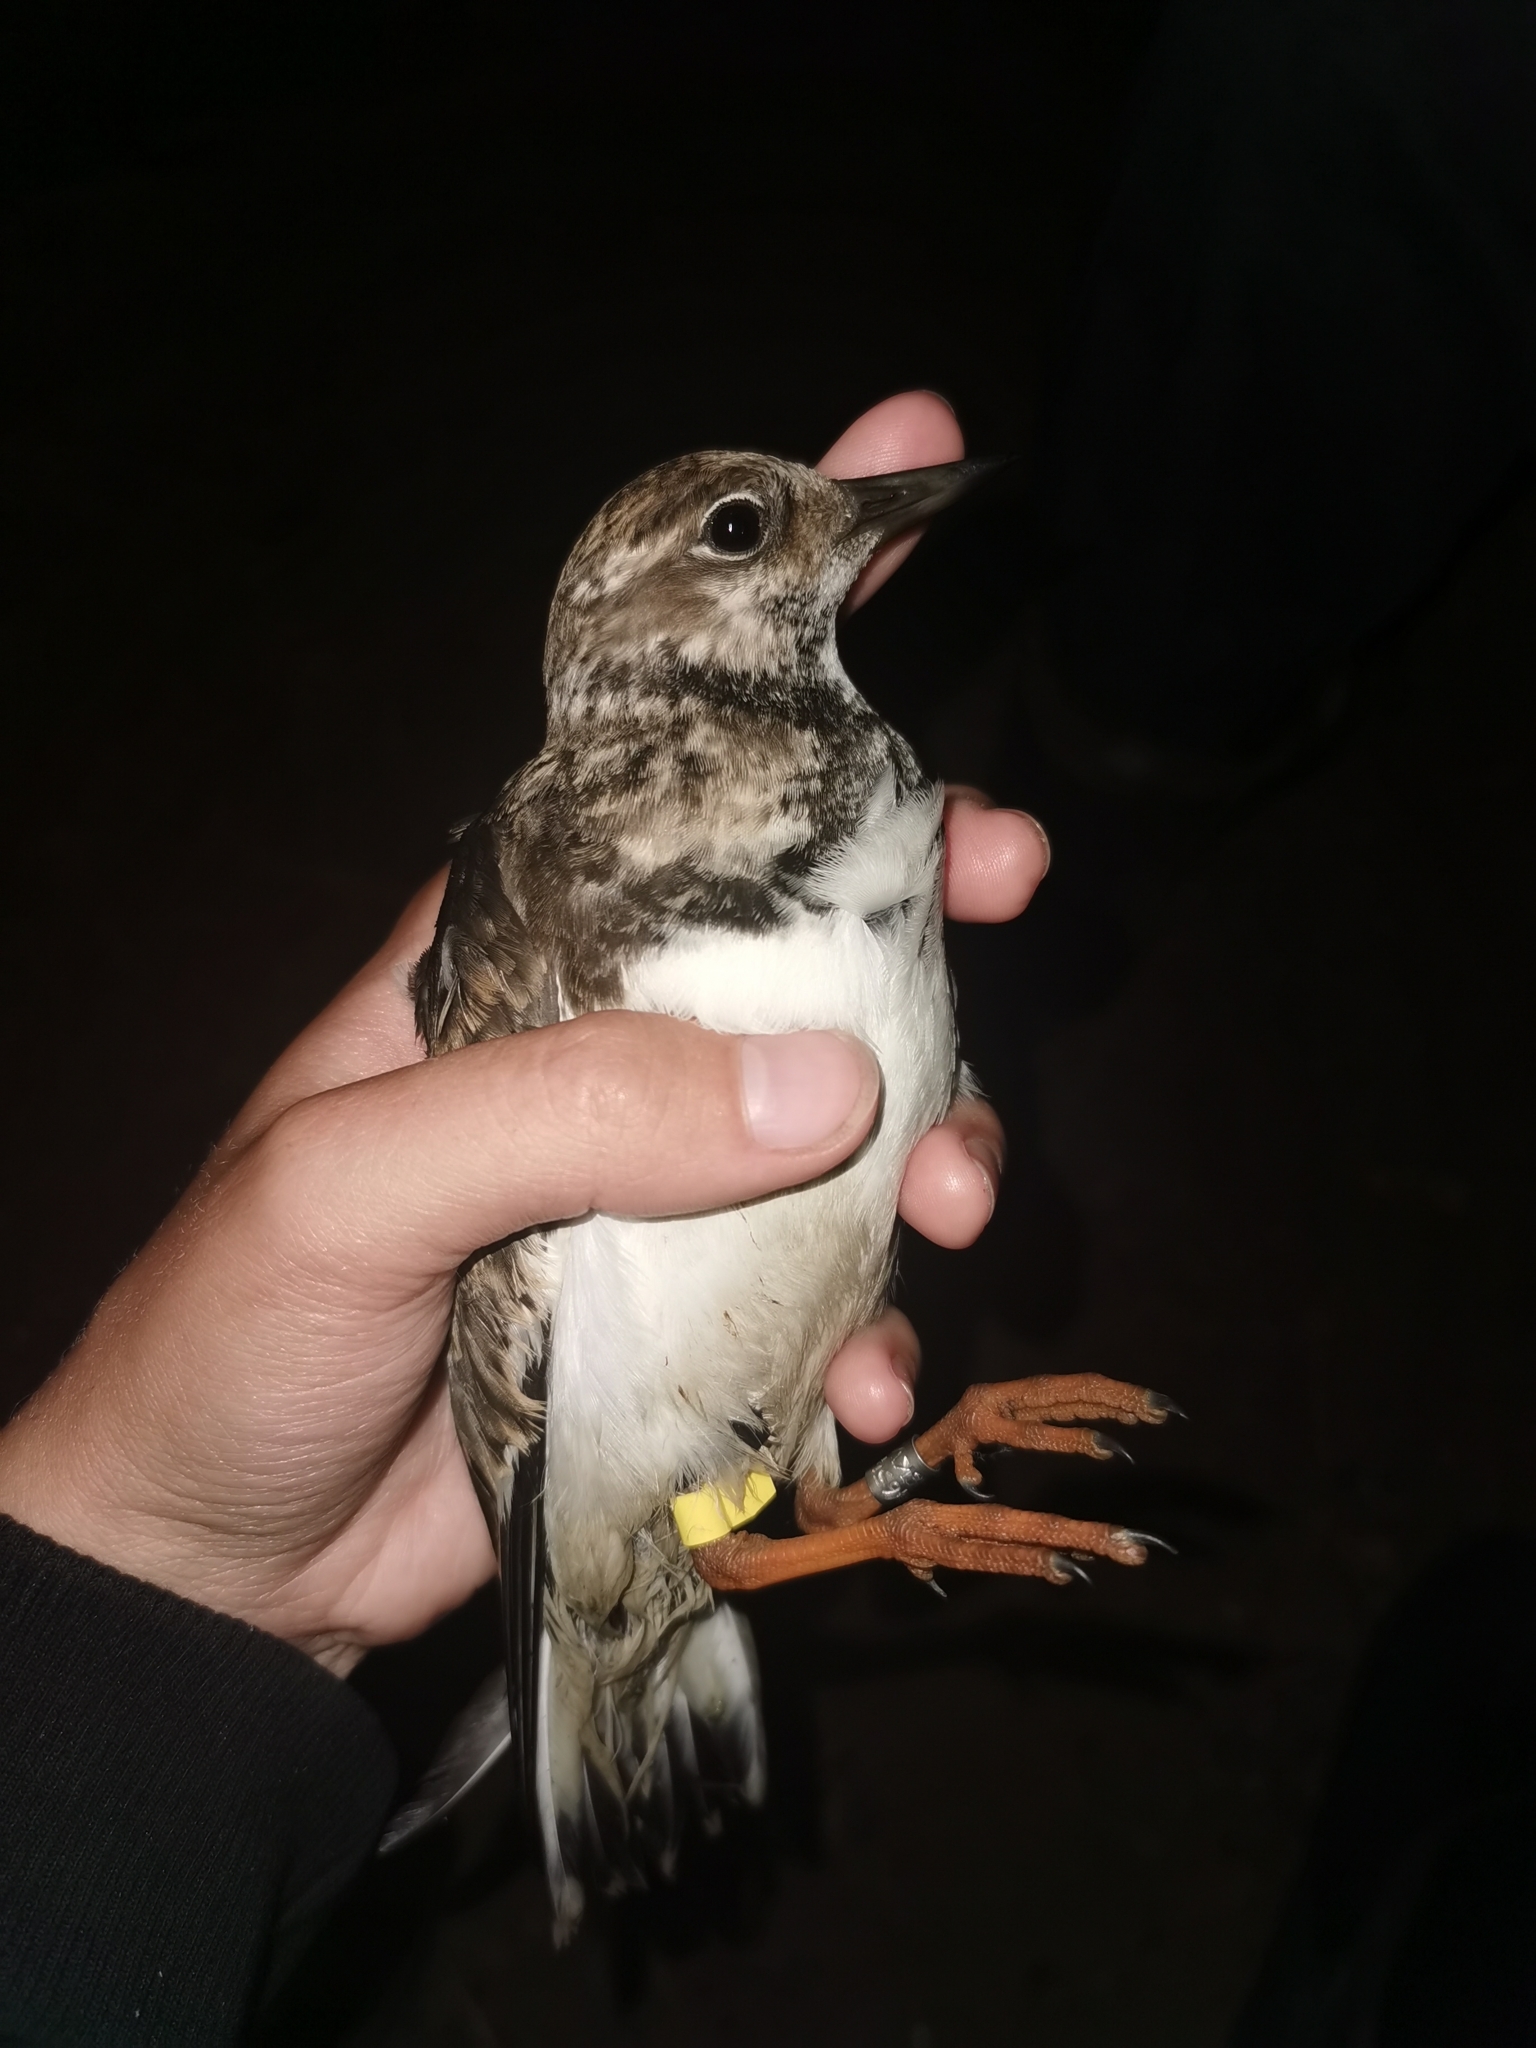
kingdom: Animalia
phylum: Chordata
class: Aves
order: Charadriiformes
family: Scolopacidae
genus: Arenaria
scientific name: Arenaria interpres
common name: Ruddy turnstone
